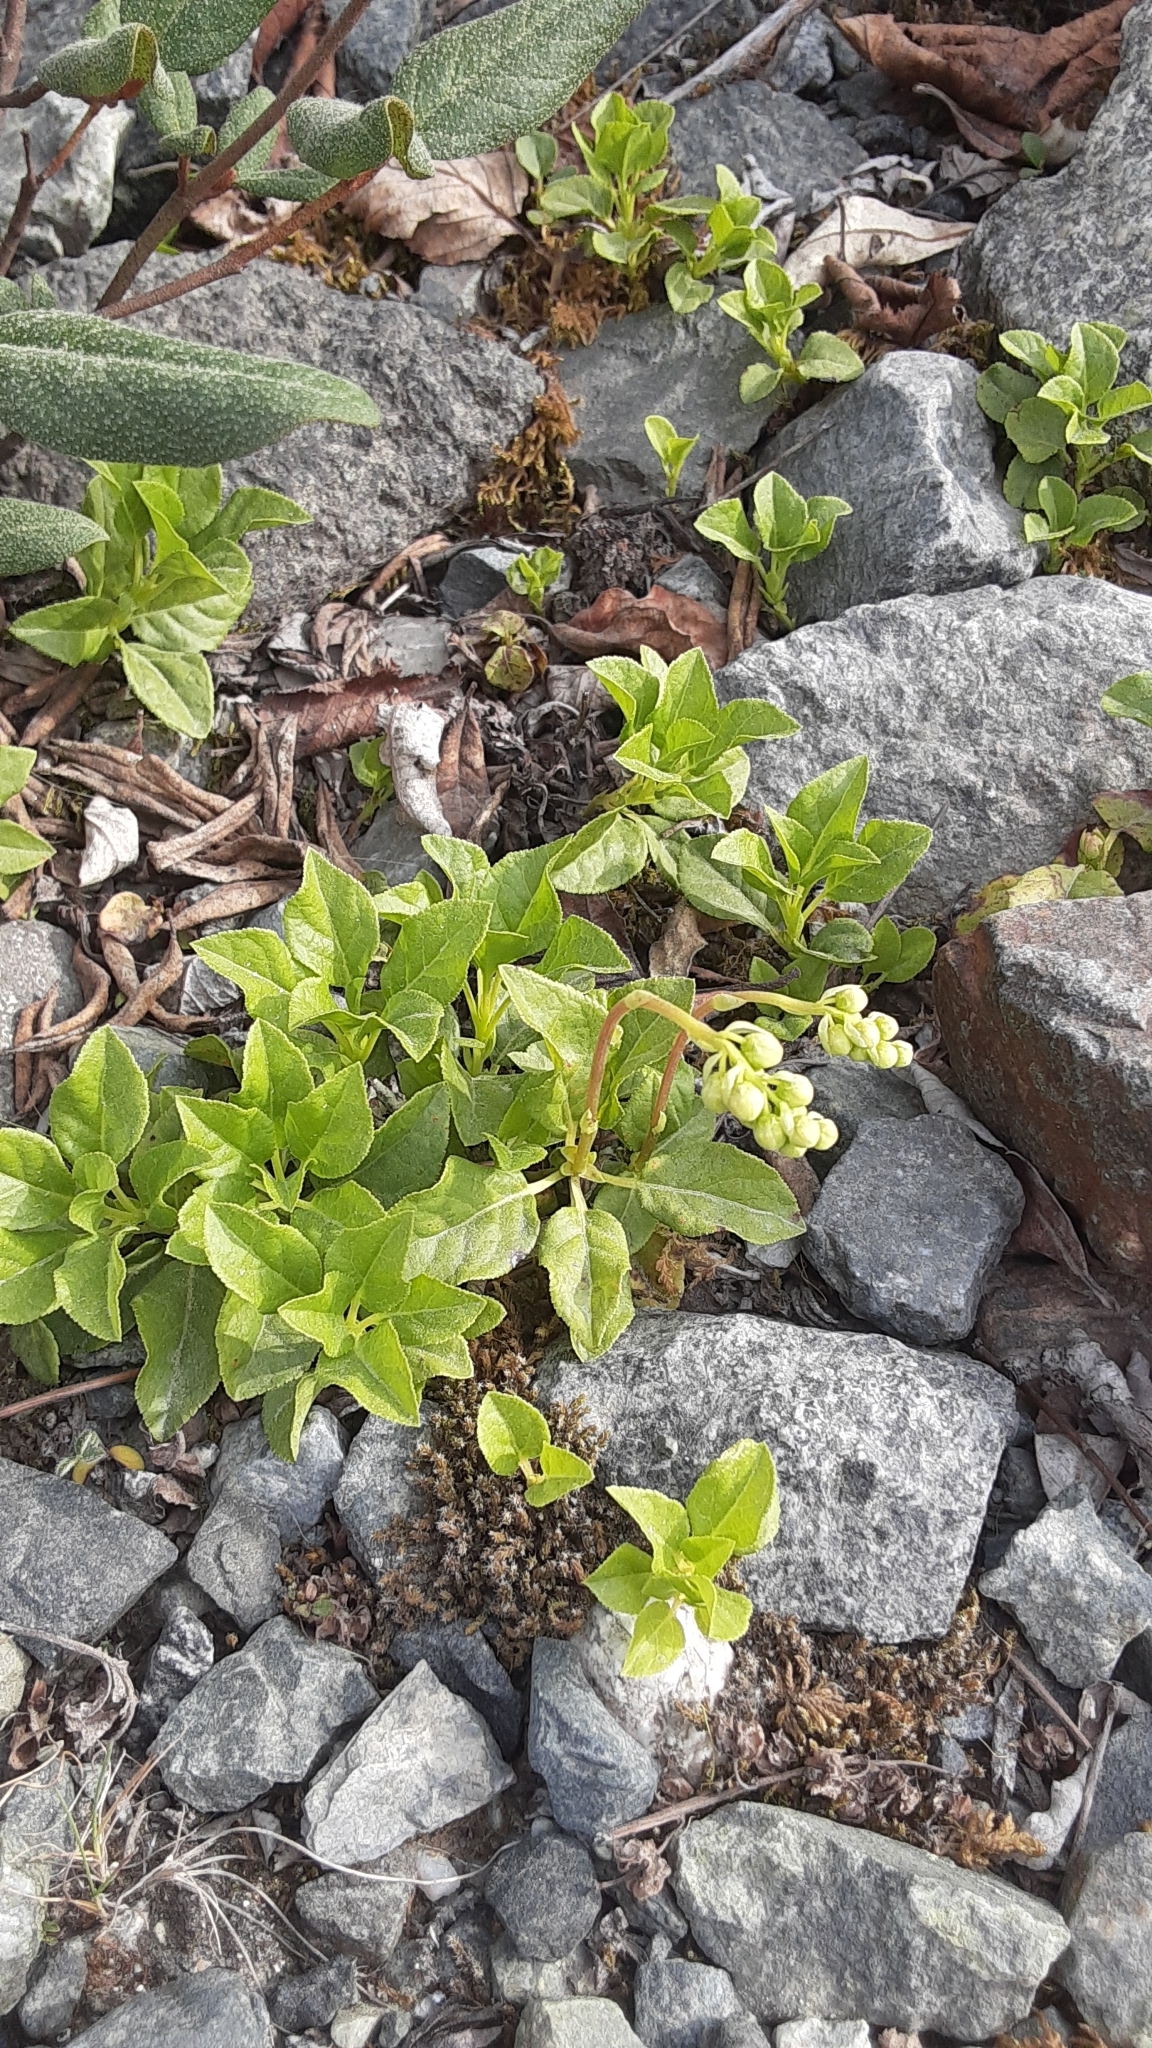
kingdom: Plantae
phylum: Tracheophyta
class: Magnoliopsida
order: Ericales
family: Ericaceae
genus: Orthilia
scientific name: Orthilia secunda
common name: One-sided orthilia
